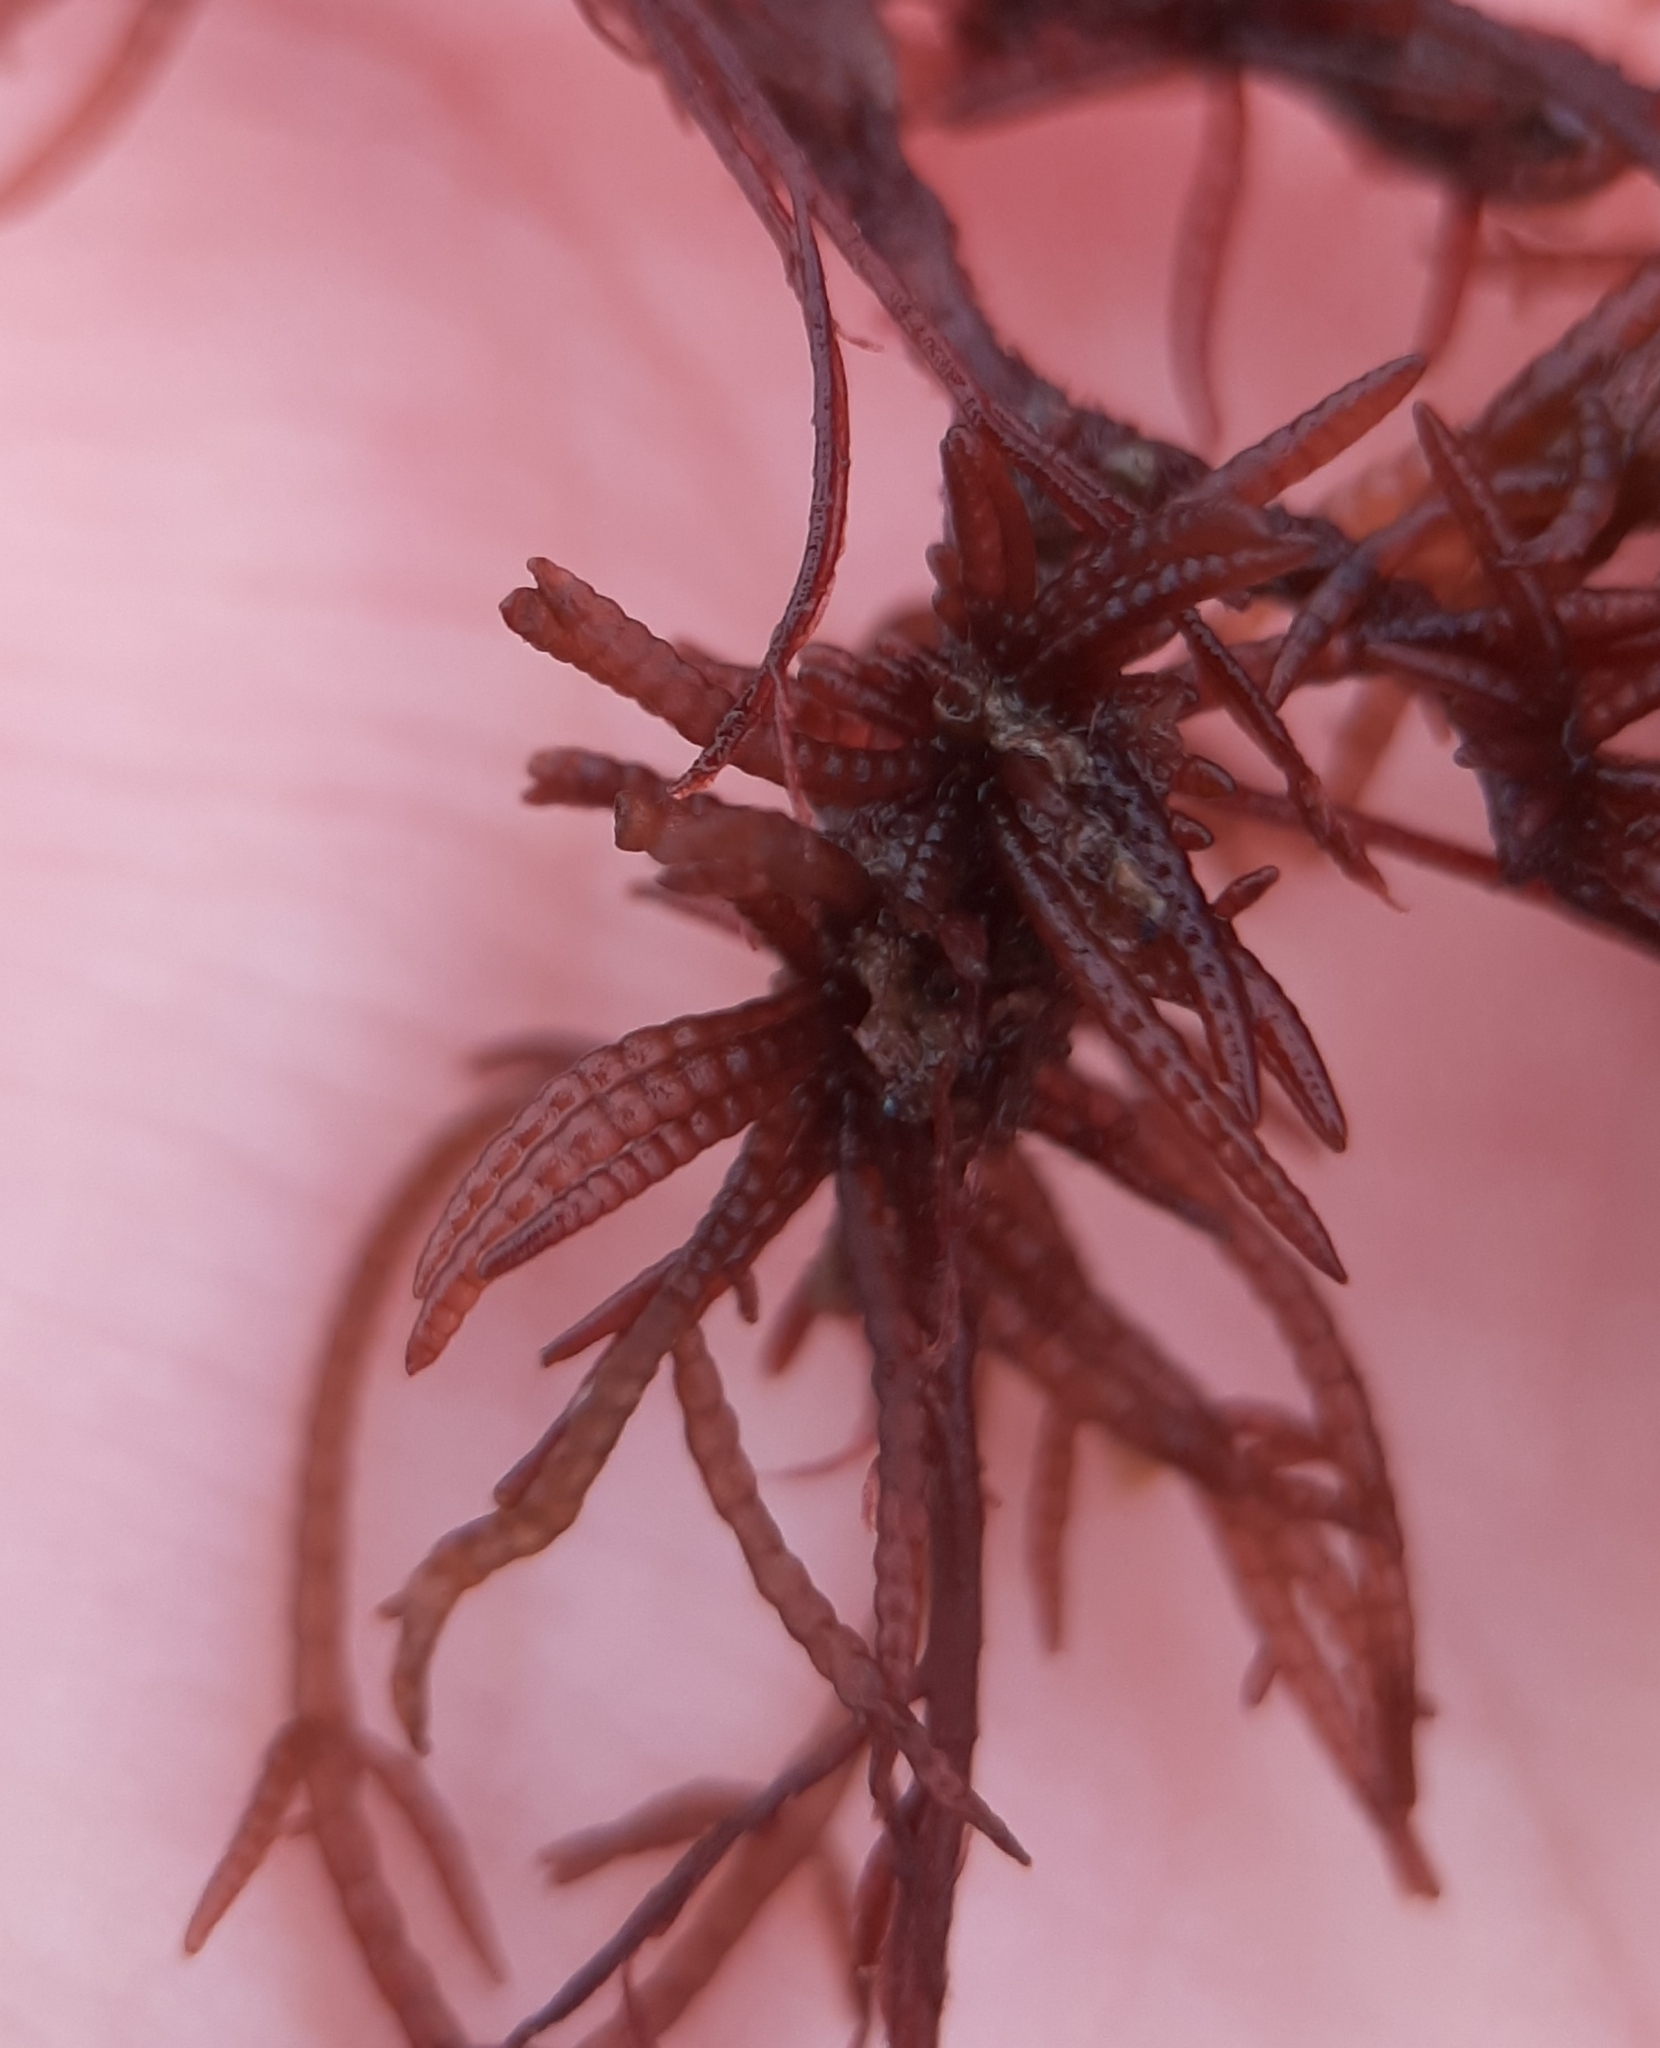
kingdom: Plantae
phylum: Rhodophyta
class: Florideophyceae
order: Rhodymeniales
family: Champiaceae
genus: Champia
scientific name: Champia farlowii
